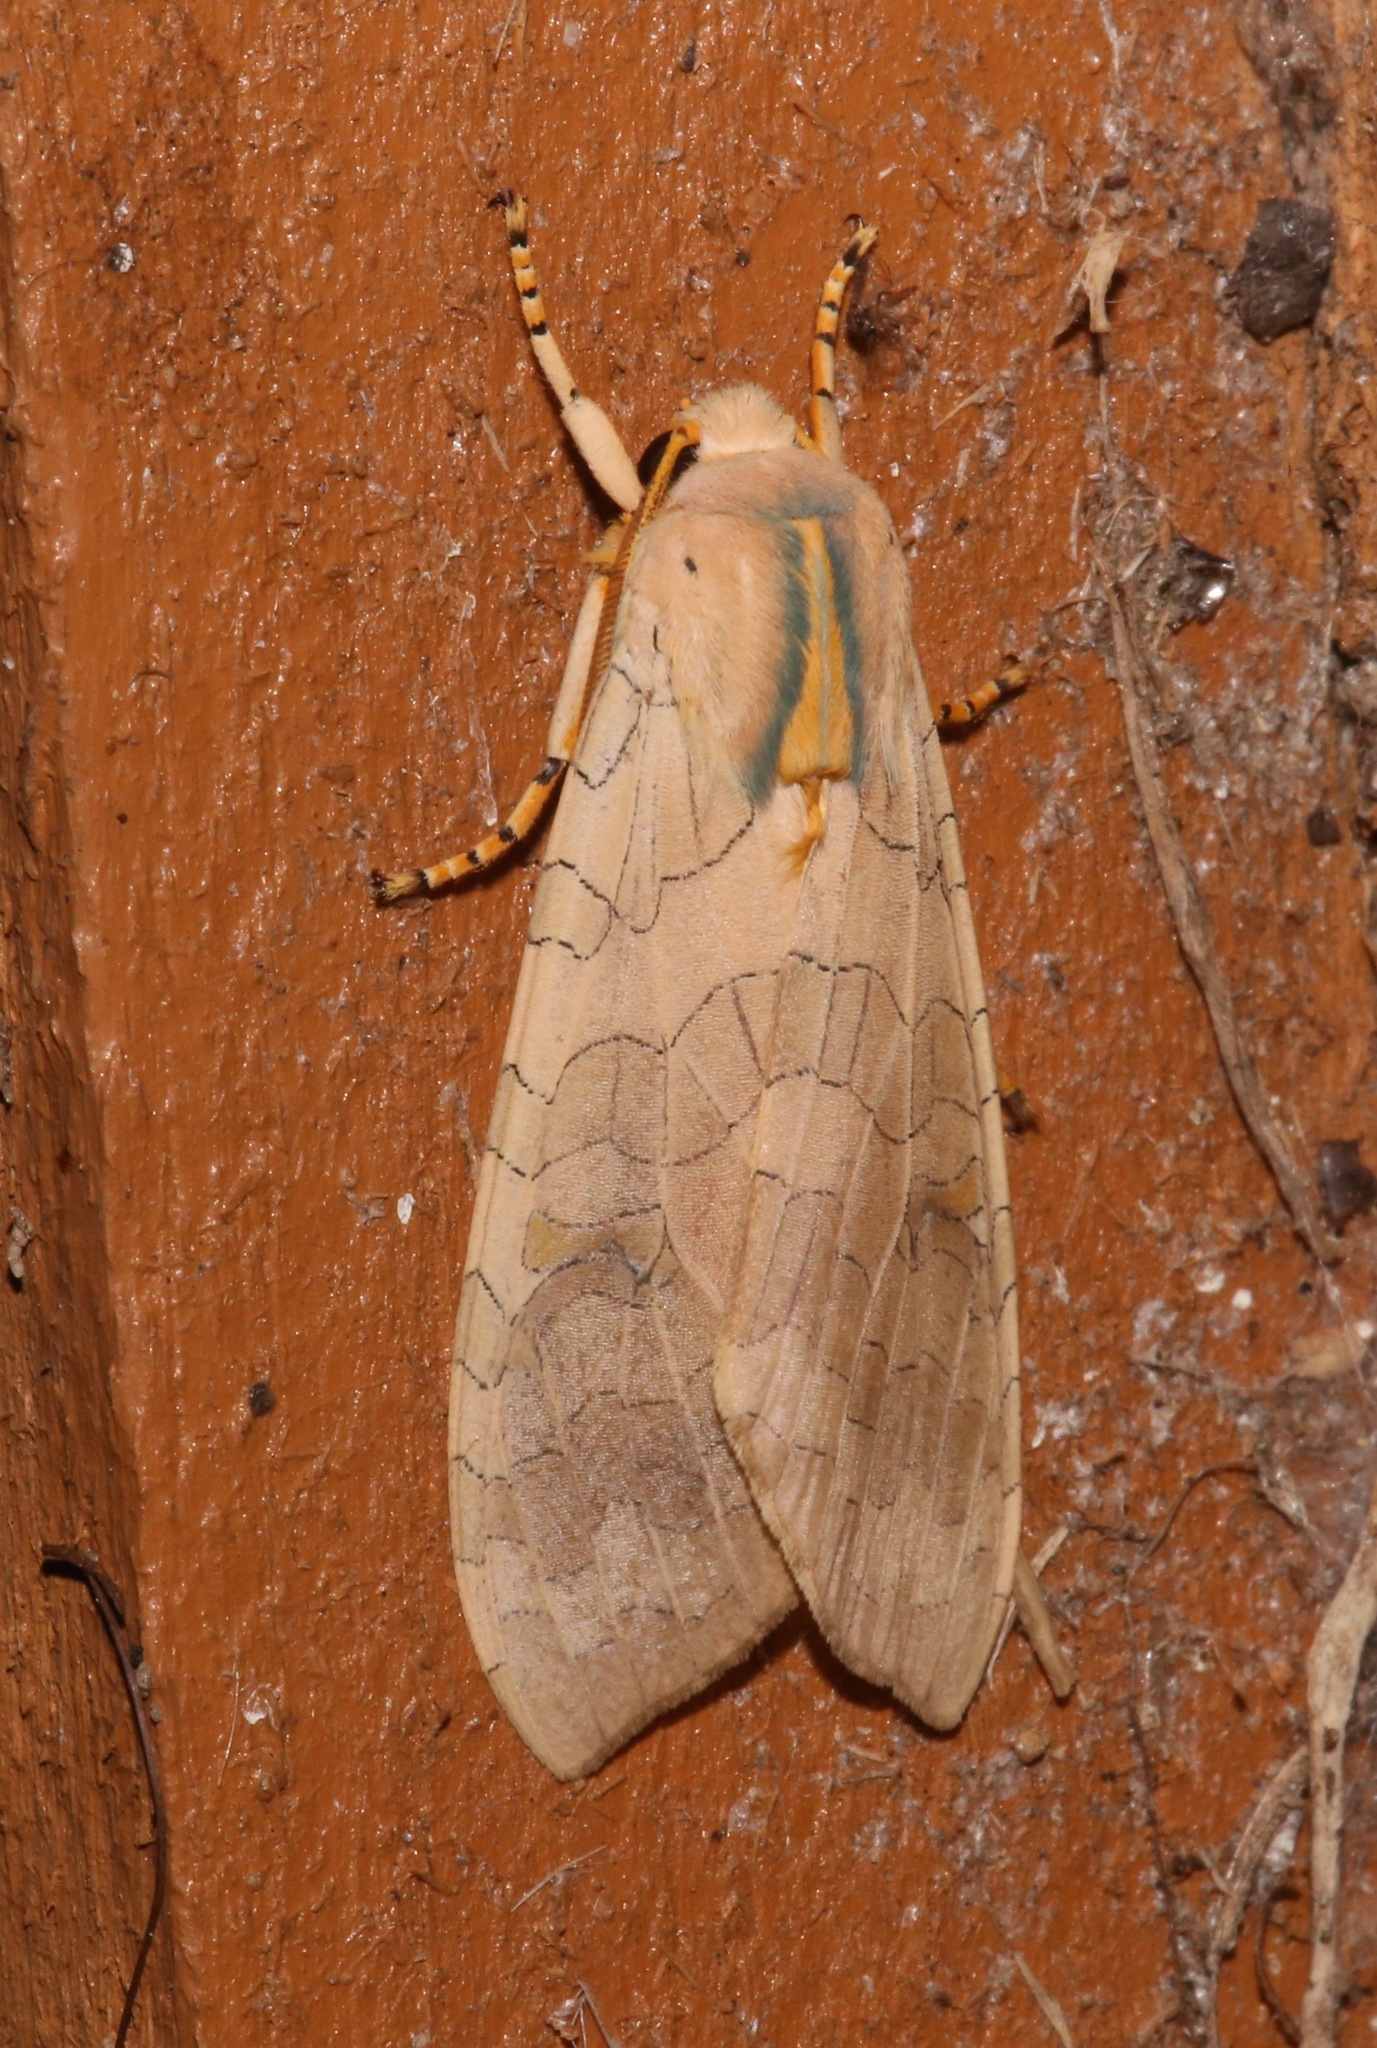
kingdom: Animalia
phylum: Arthropoda
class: Insecta
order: Lepidoptera
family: Erebidae
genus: Halysidota
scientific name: Halysidota tessellaris
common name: Banded tussock moth
